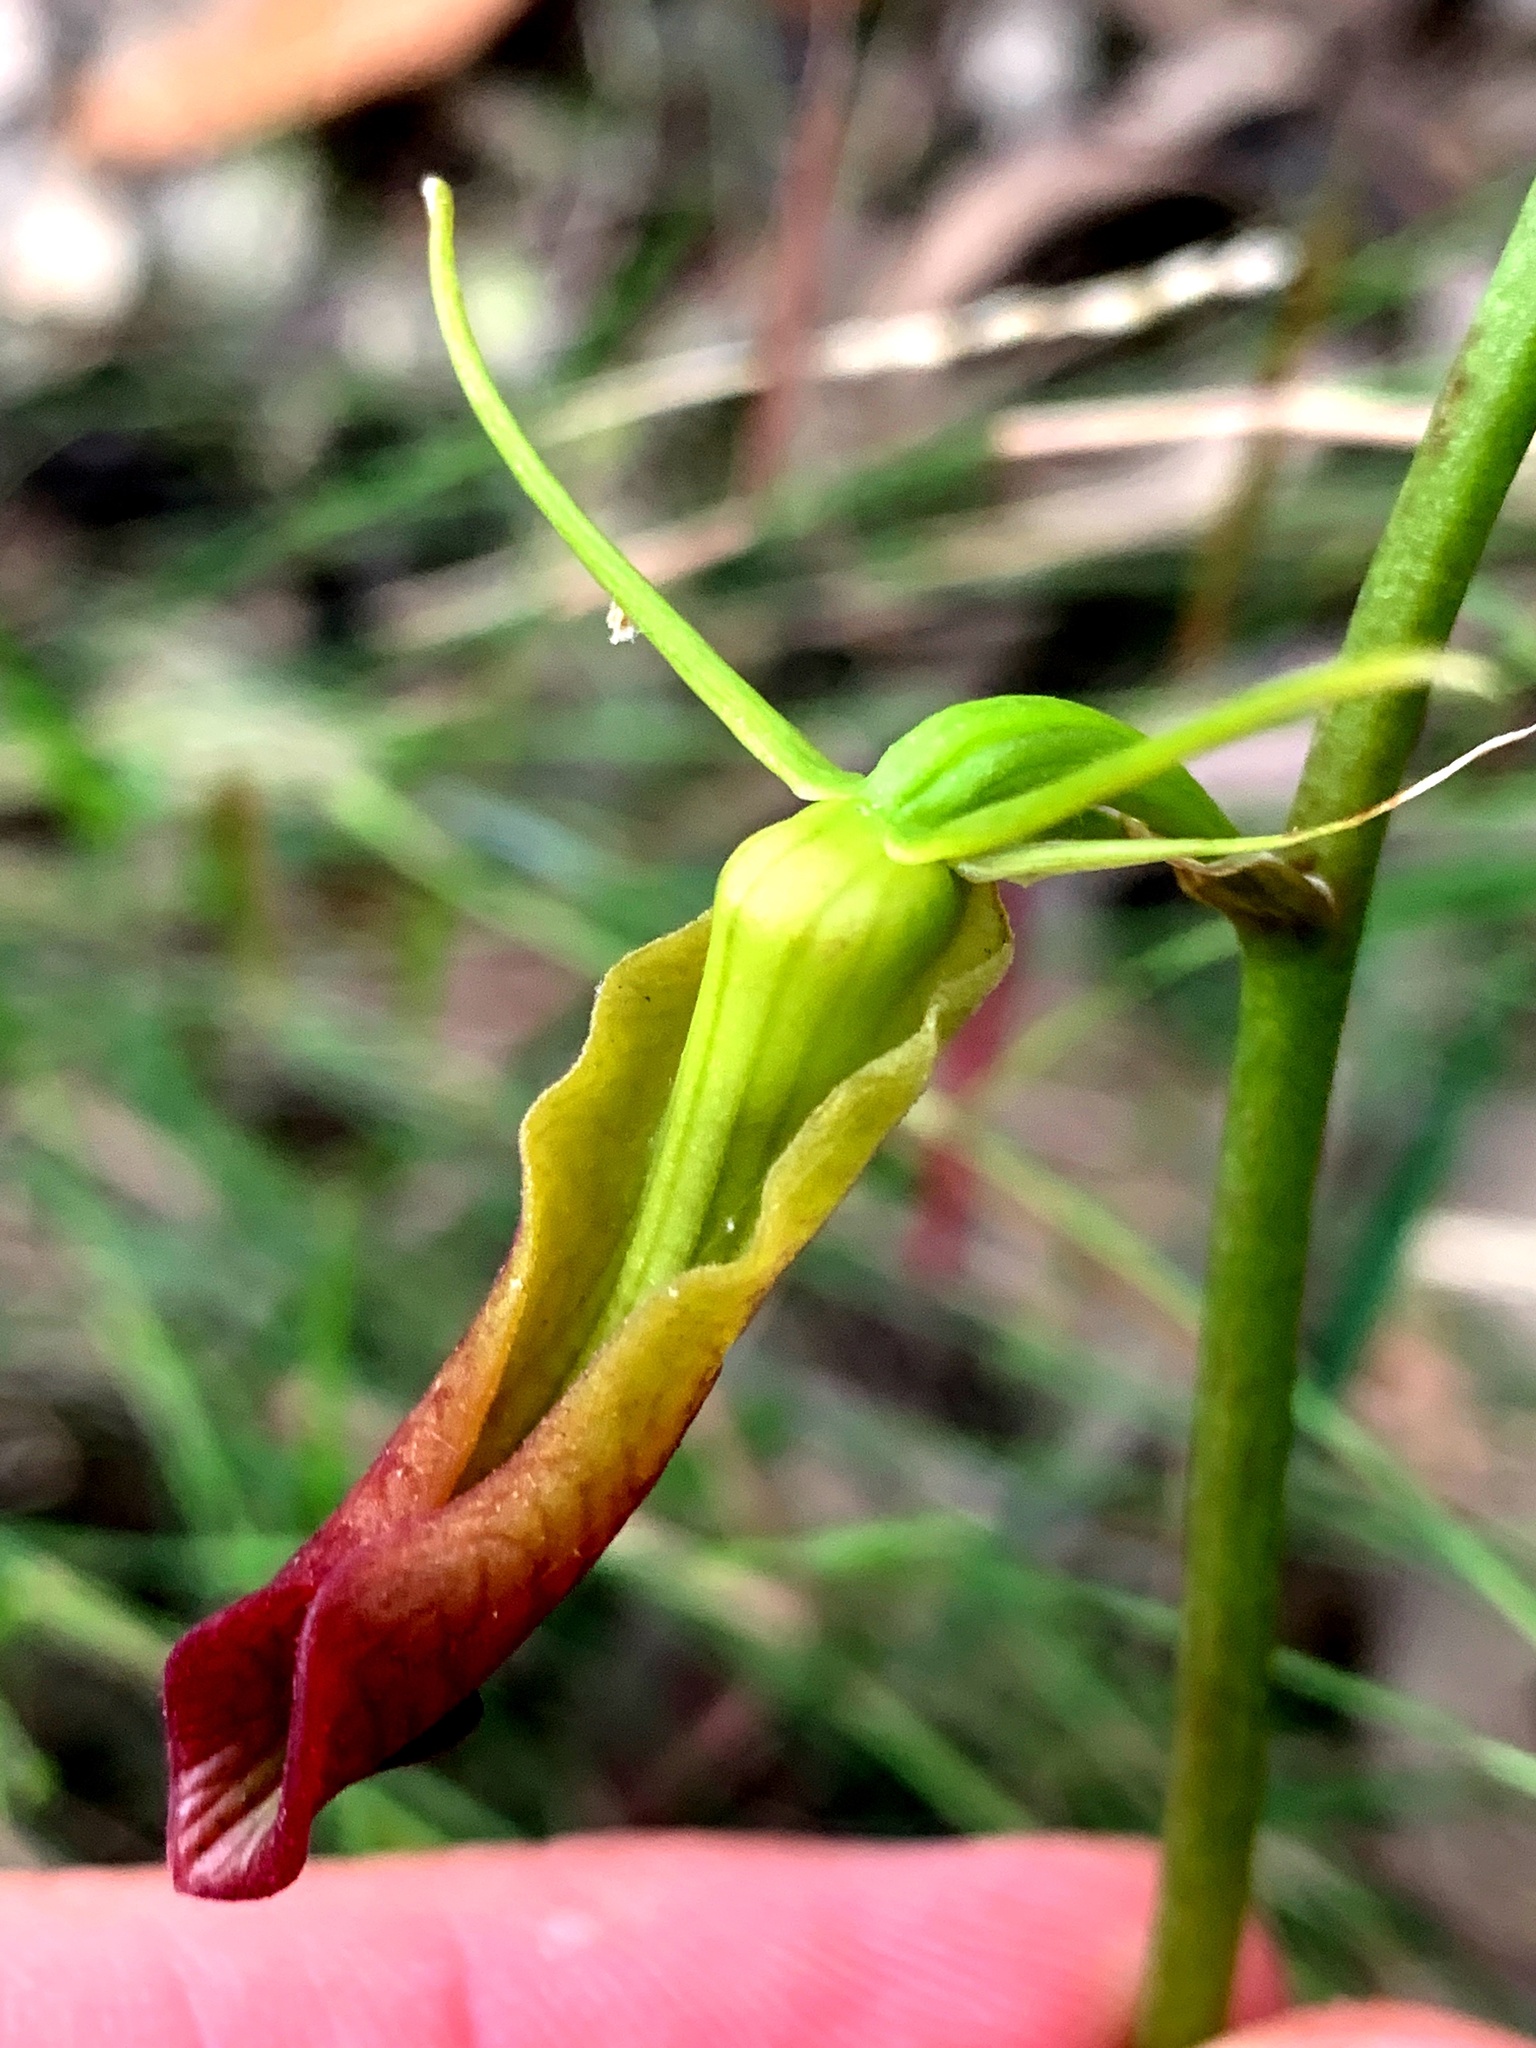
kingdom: Plantae
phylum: Tracheophyta
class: Liliopsida
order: Asparagales
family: Orchidaceae
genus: Cryptostylis
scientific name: Cryptostylis subulata
